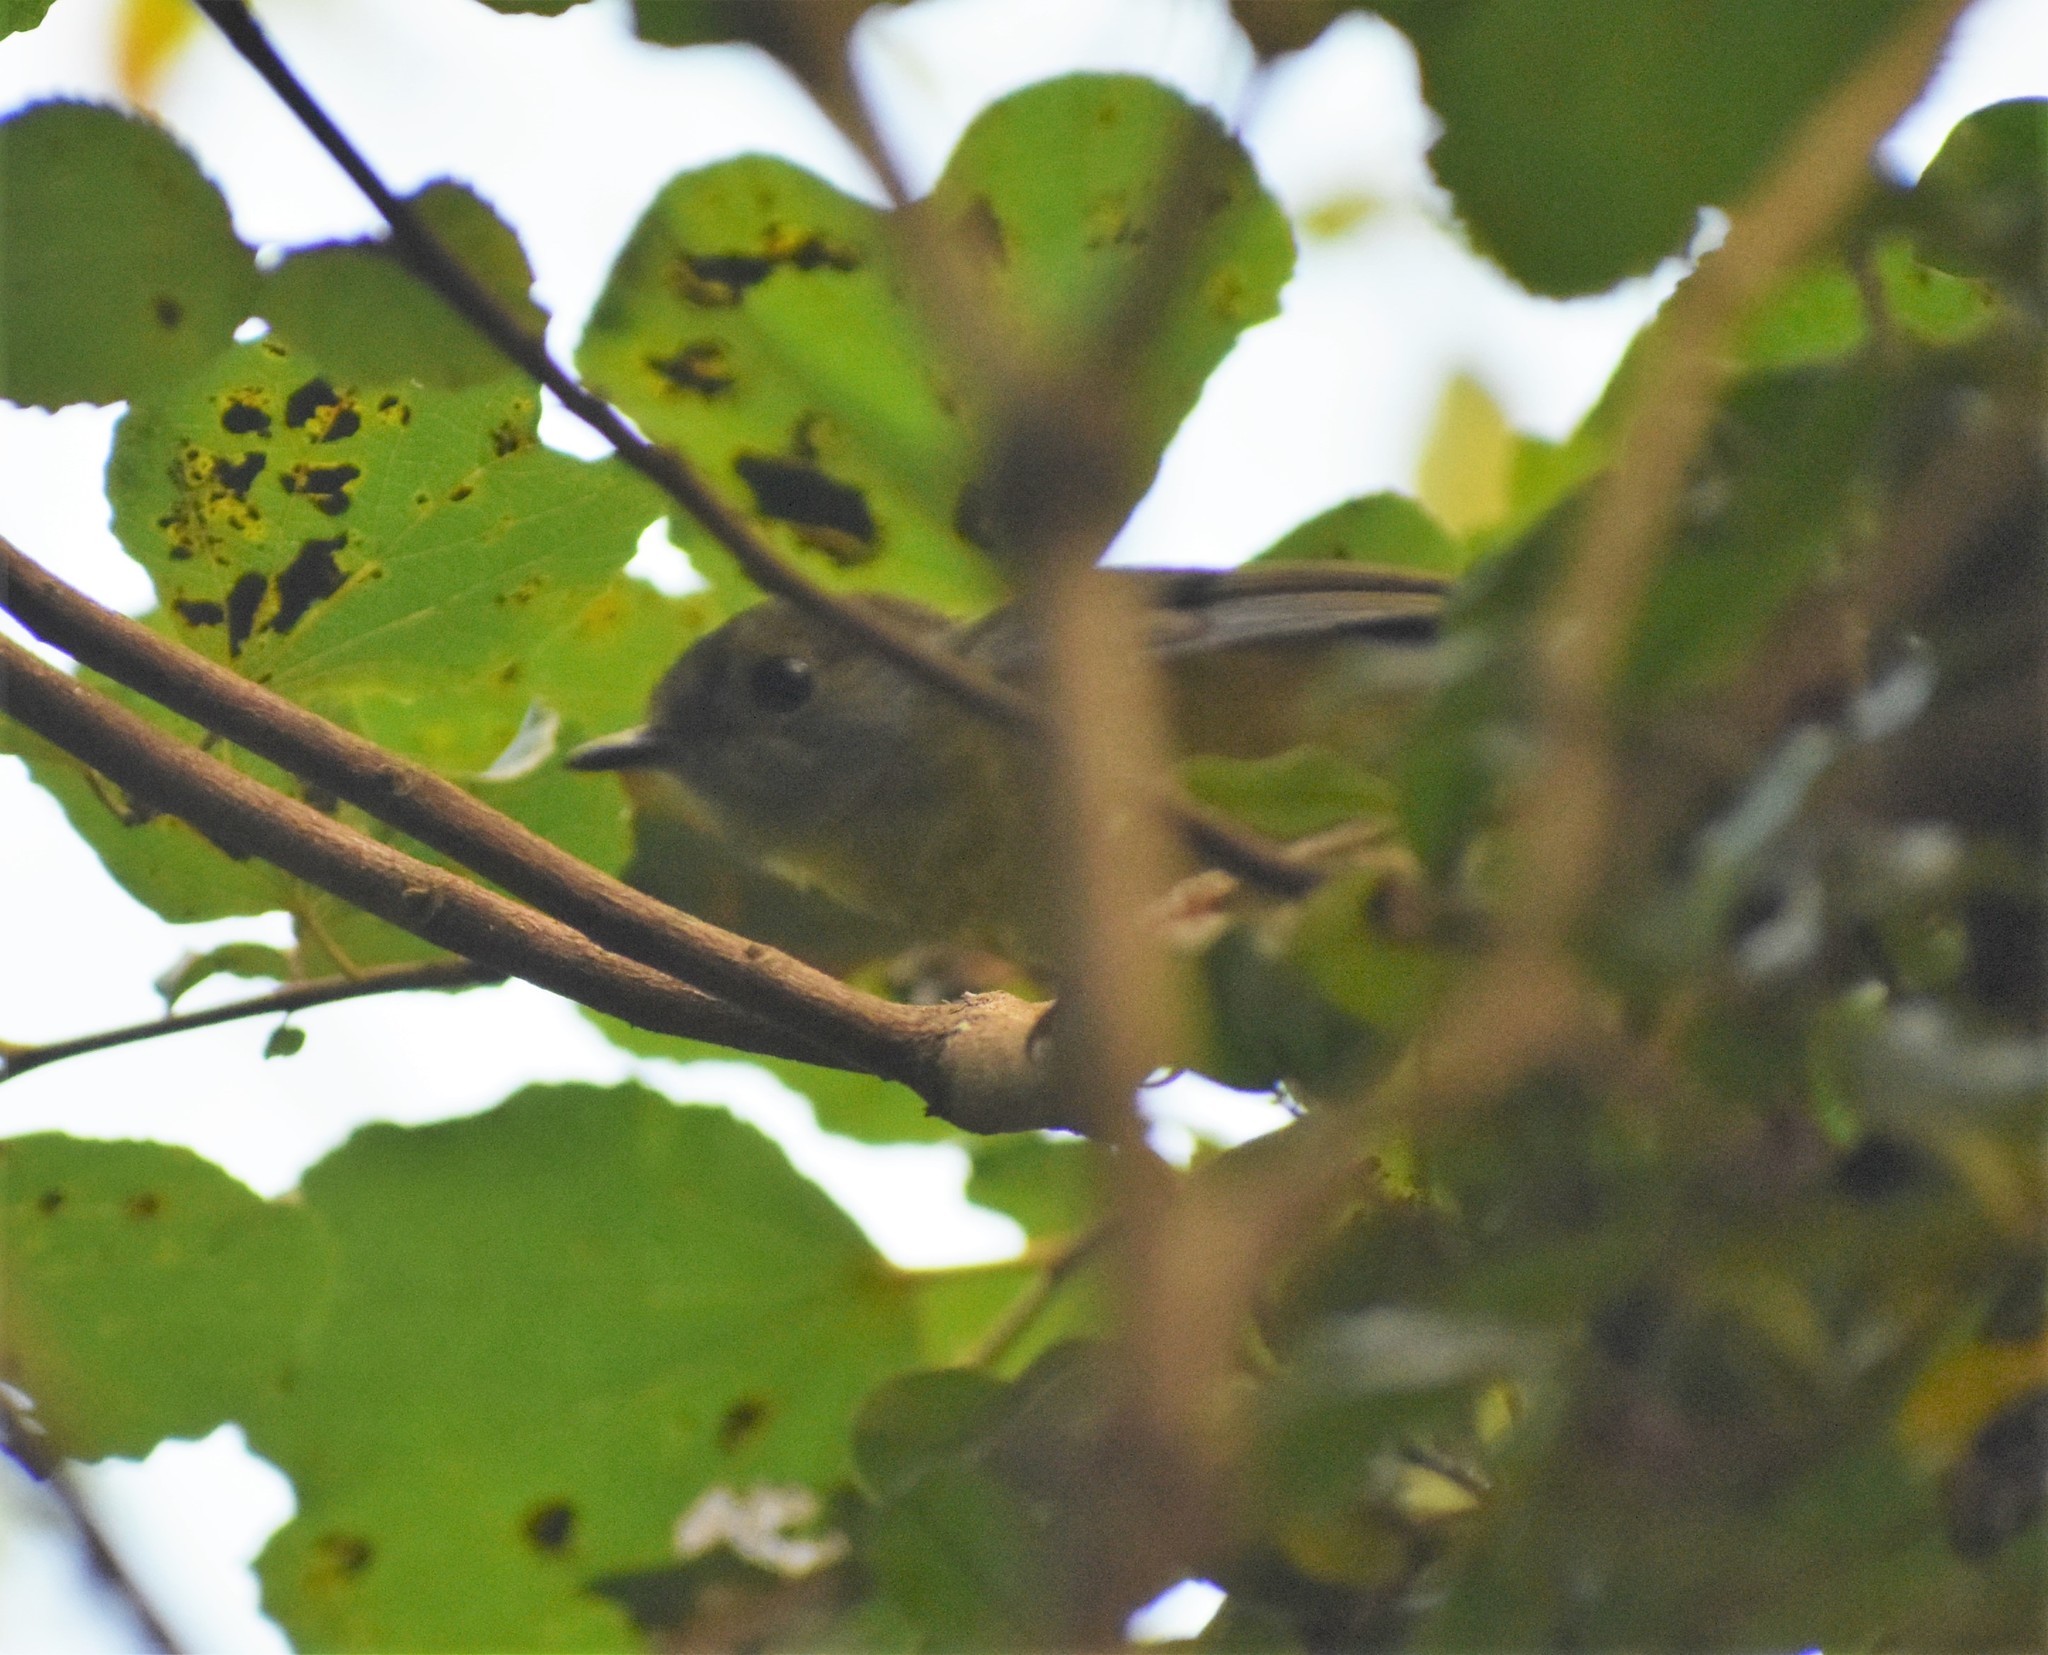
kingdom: Animalia
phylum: Chordata
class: Aves
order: Passeriformes
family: Muscicapidae
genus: Pogonocichla
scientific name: Pogonocichla stellata
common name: White-starred robin
